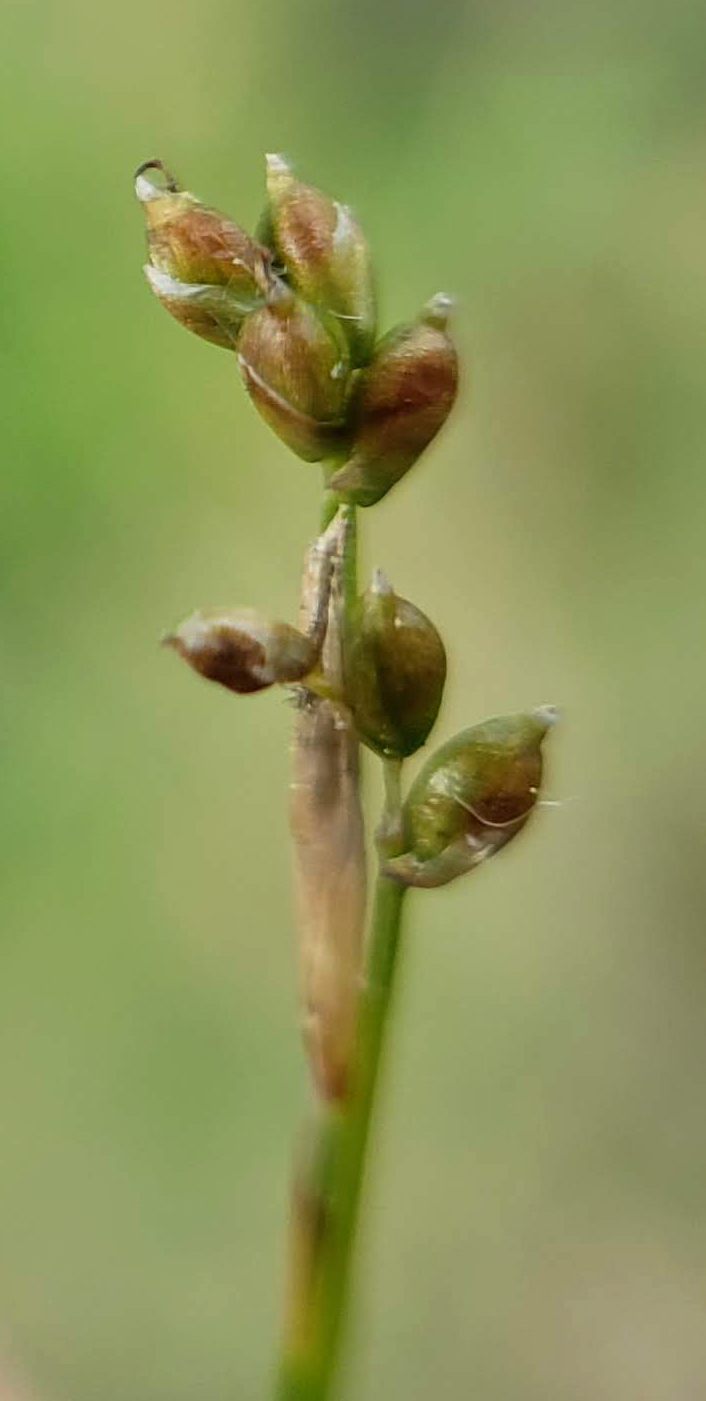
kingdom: Plantae
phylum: Tracheophyta
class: Liliopsida
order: Poales
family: Cyperaceae
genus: Carex
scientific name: Carex eburnea
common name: Bristle-leaved sedge
